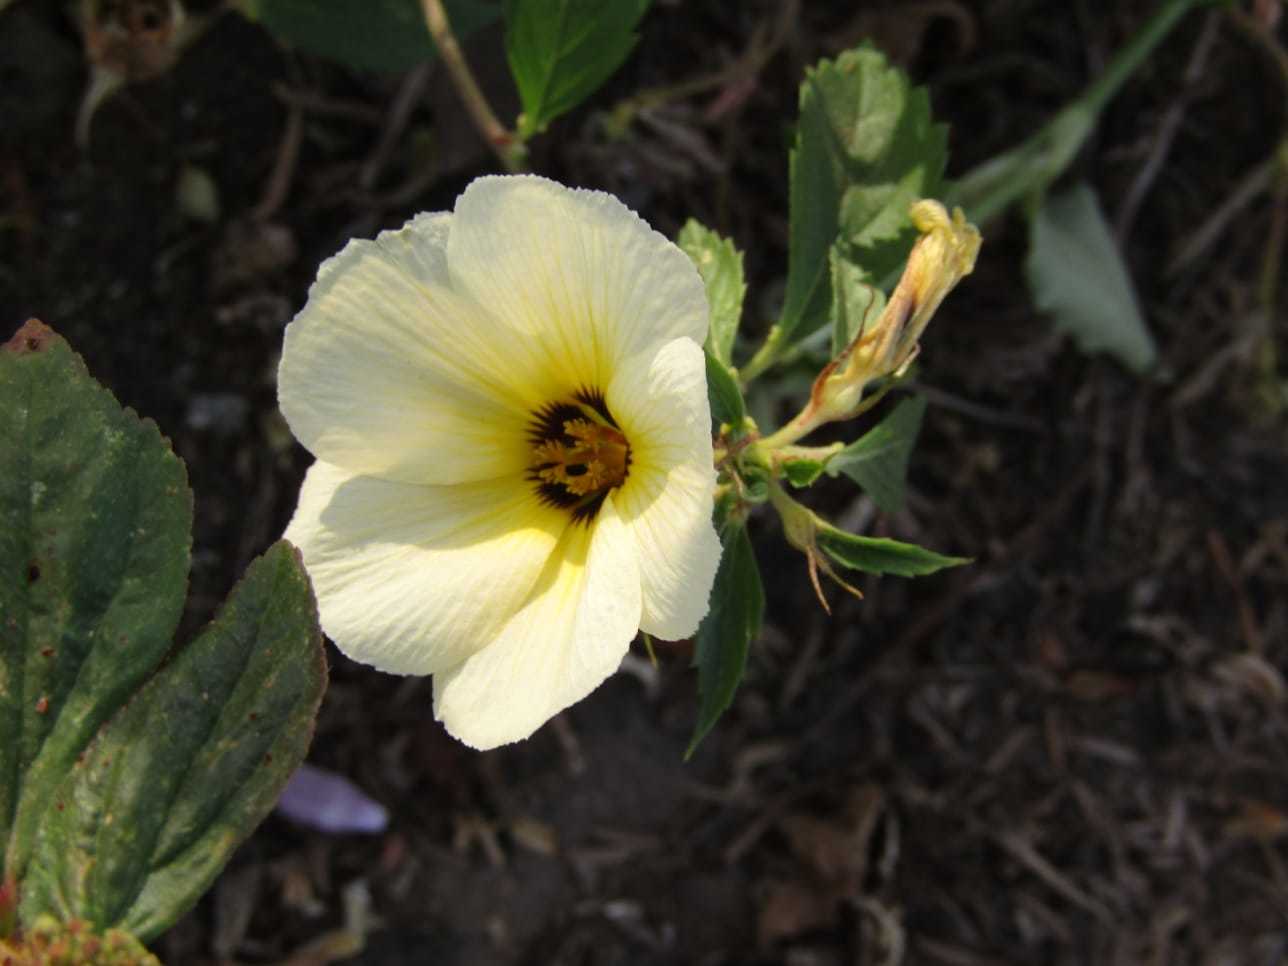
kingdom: Plantae
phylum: Tracheophyta
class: Magnoliopsida
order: Malpighiales
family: Turneraceae
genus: Turnera
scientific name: Turnera subulata
